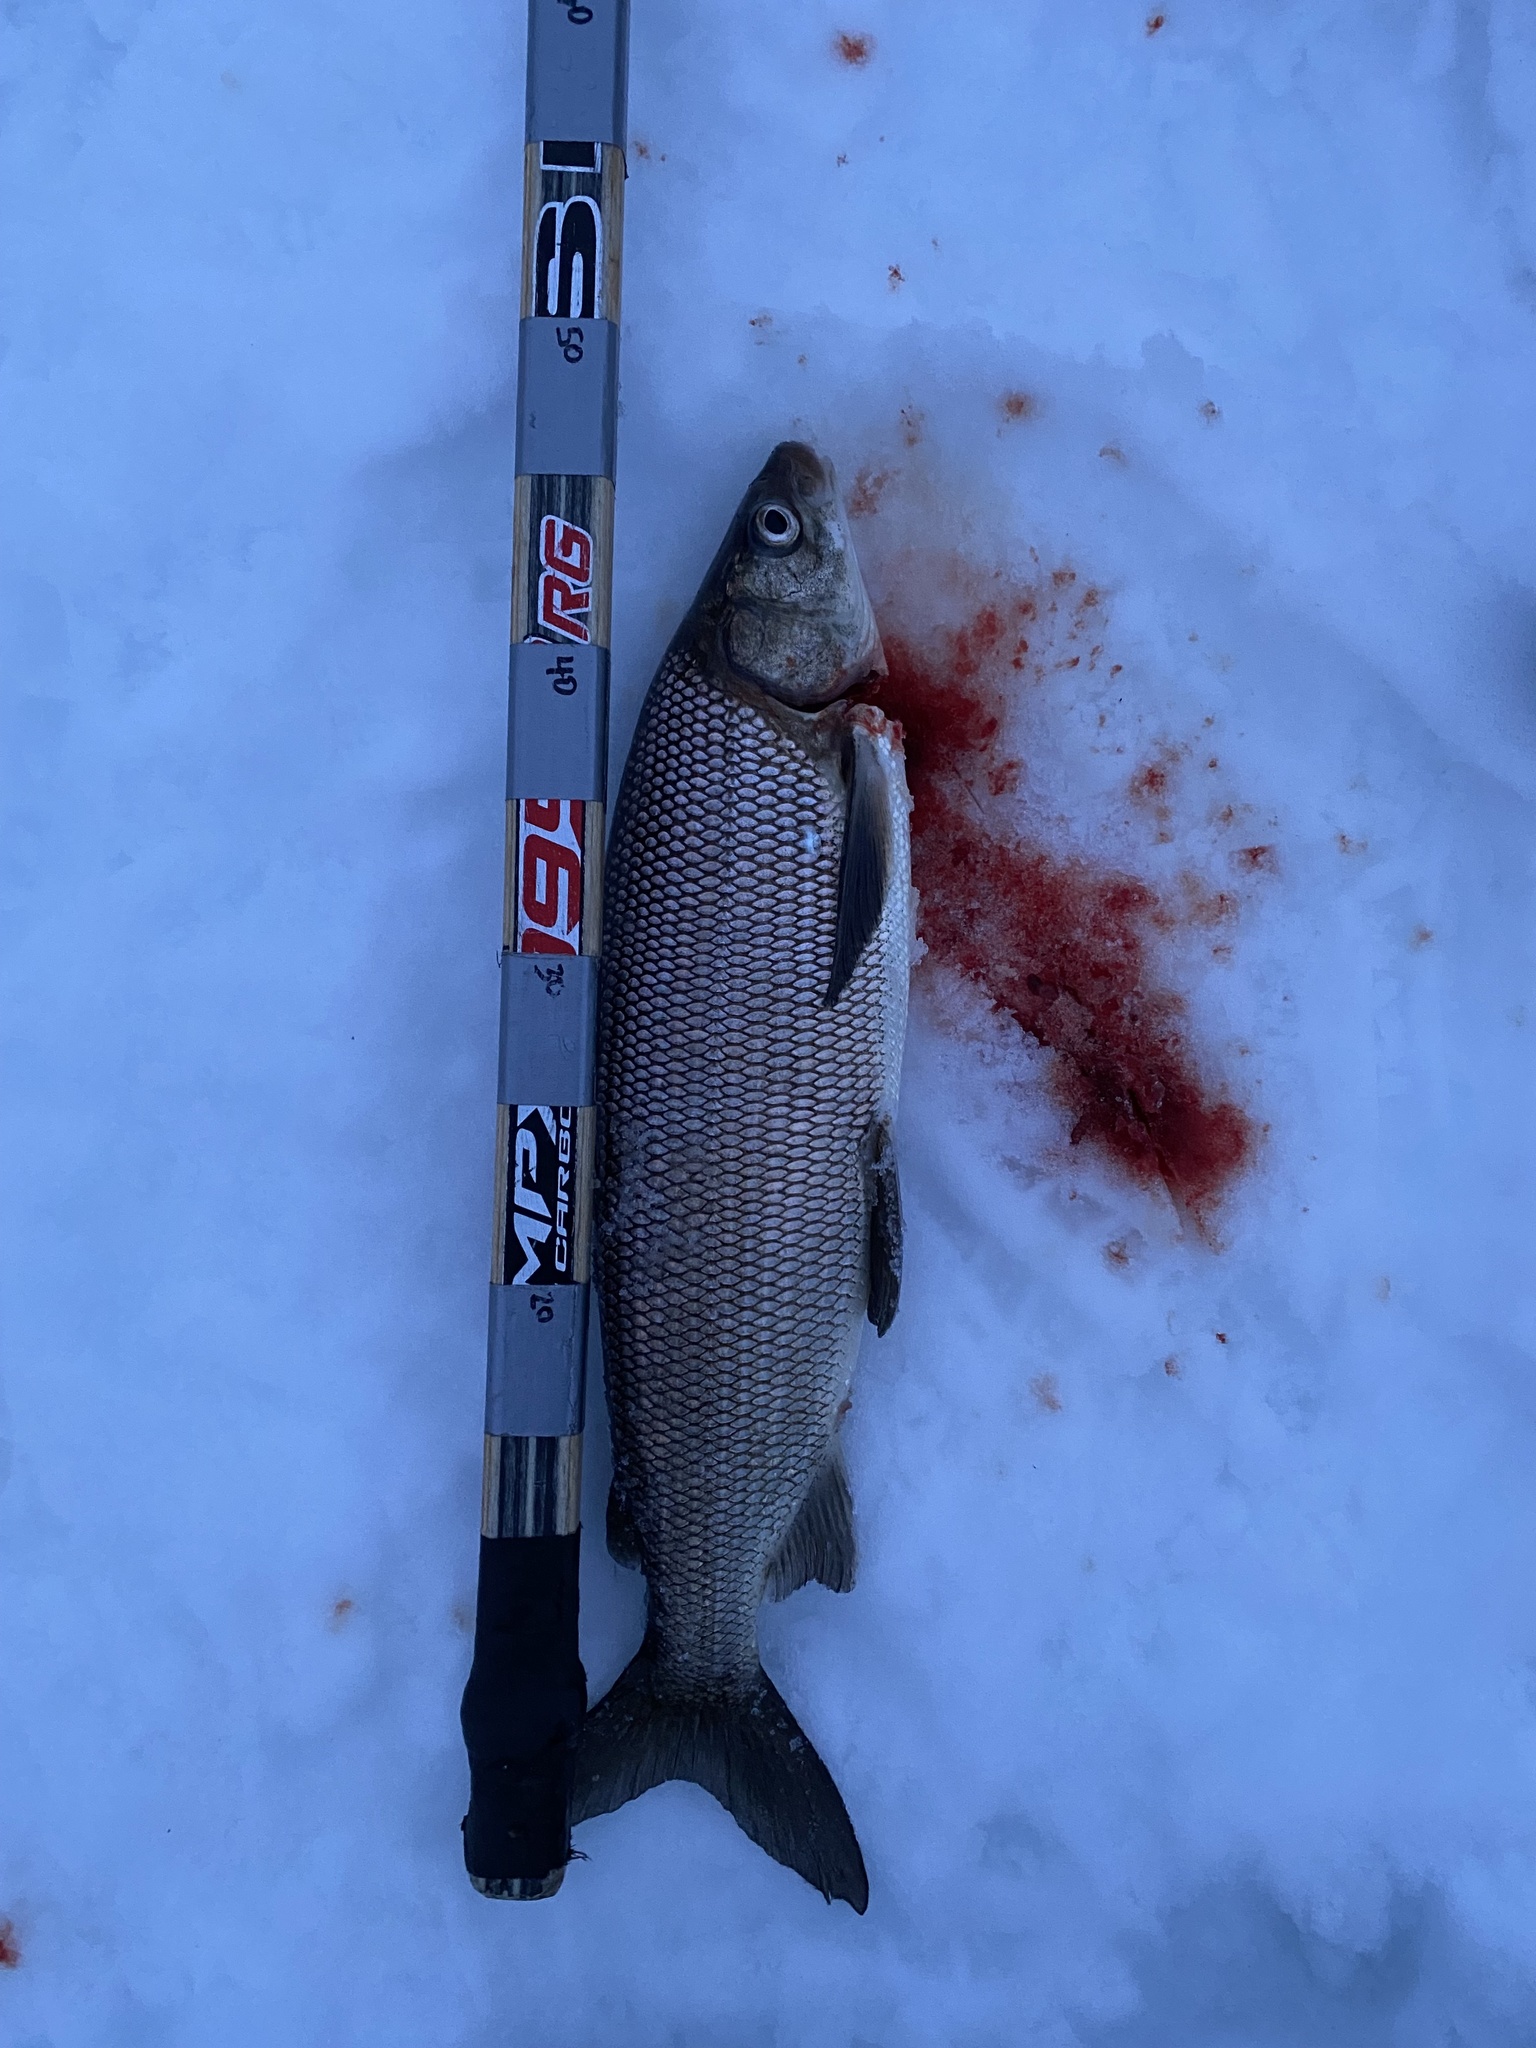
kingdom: Animalia
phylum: Chordata
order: Salmoniformes
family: Salmonidae
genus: Coregonus
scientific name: Coregonus clupeaformis
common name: Lake whitefish
